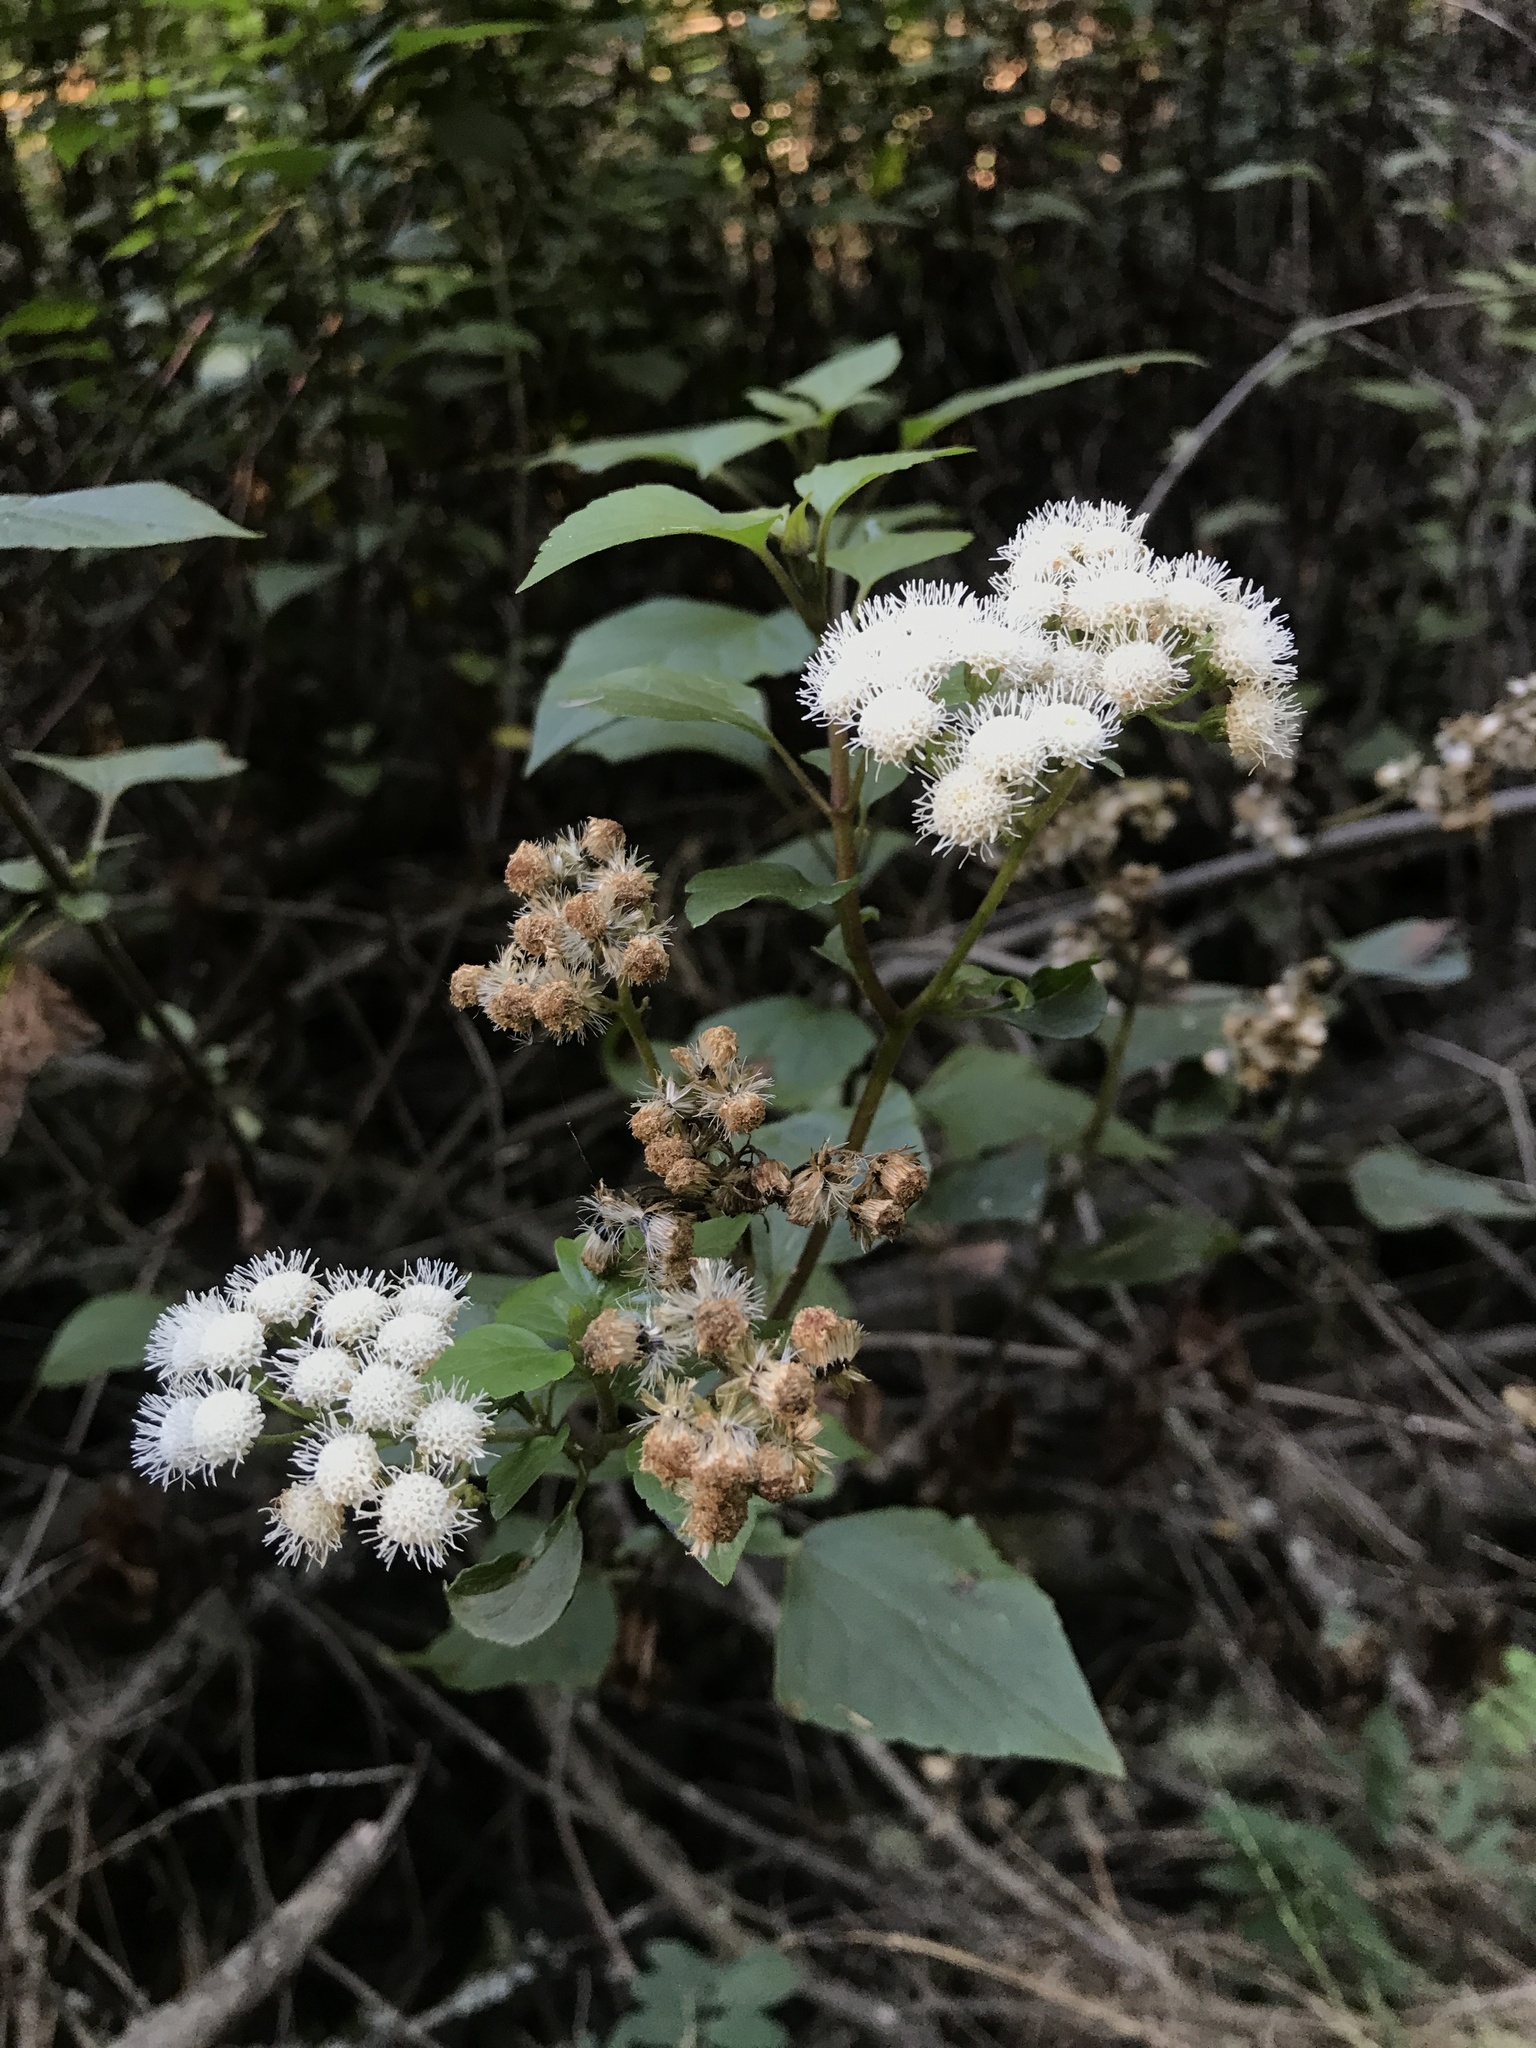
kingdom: Plantae
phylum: Tracheophyta
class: Magnoliopsida
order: Asterales
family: Asteraceae
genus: Ageratina
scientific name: Ageratina adenophora
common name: Sticky snakeroot
